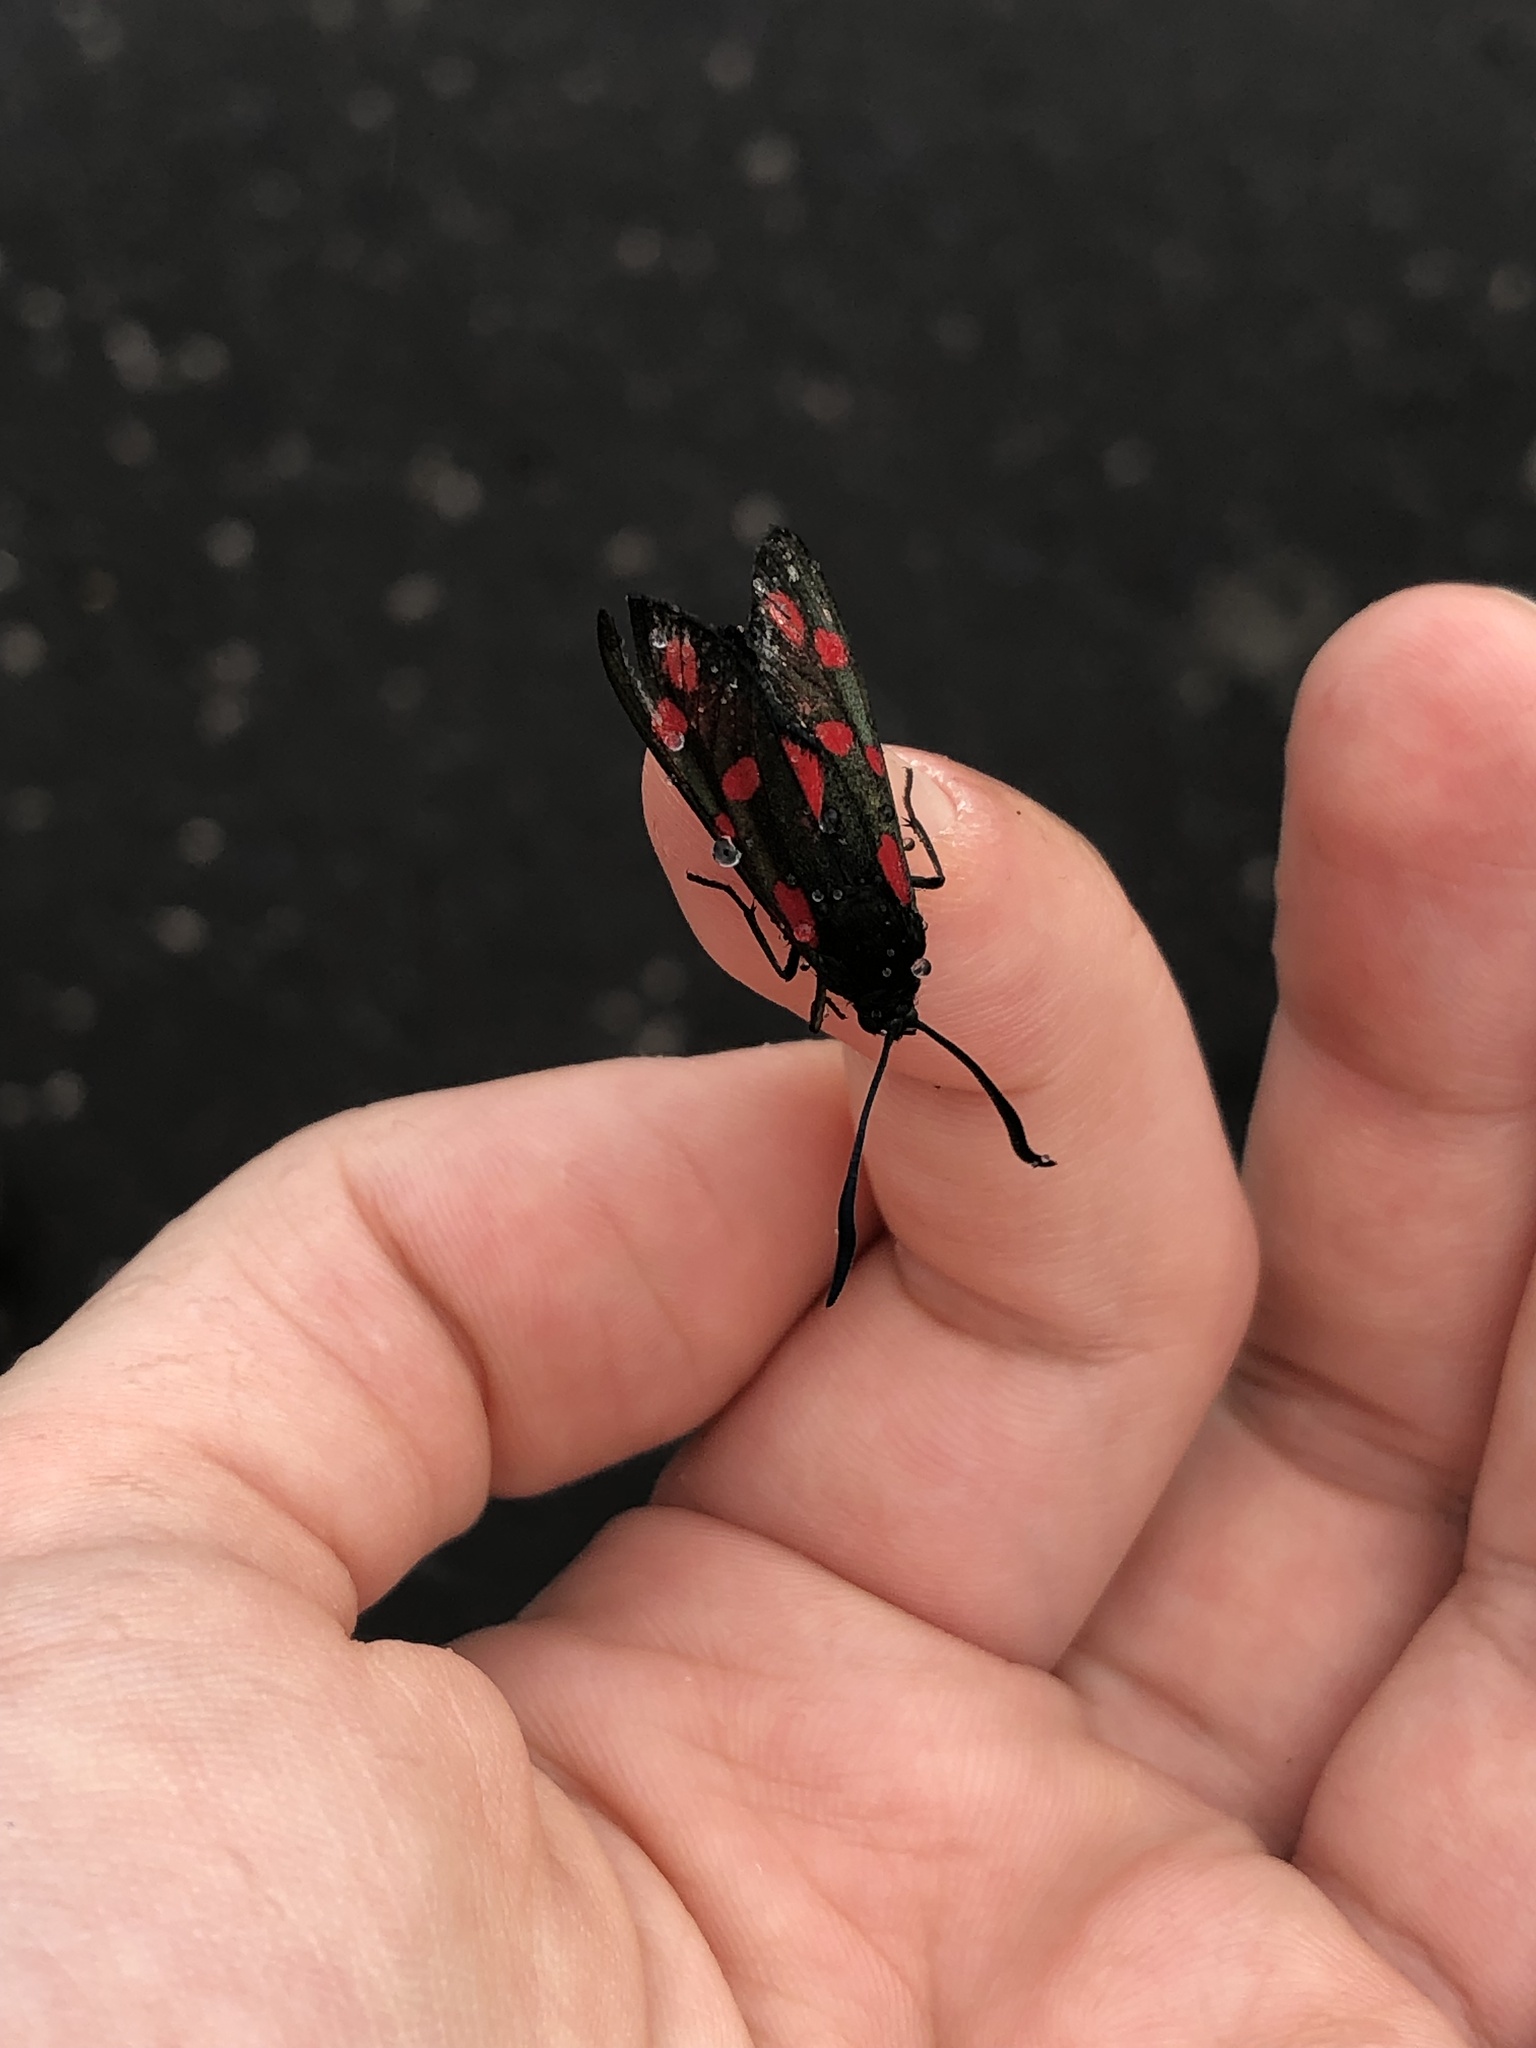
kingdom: Animalia
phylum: Arthropoda
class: Insecta
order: Lepidoptera
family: Zygaenidae
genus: Zygaena
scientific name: Zygaena filipendulae
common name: Six-spot burnet
